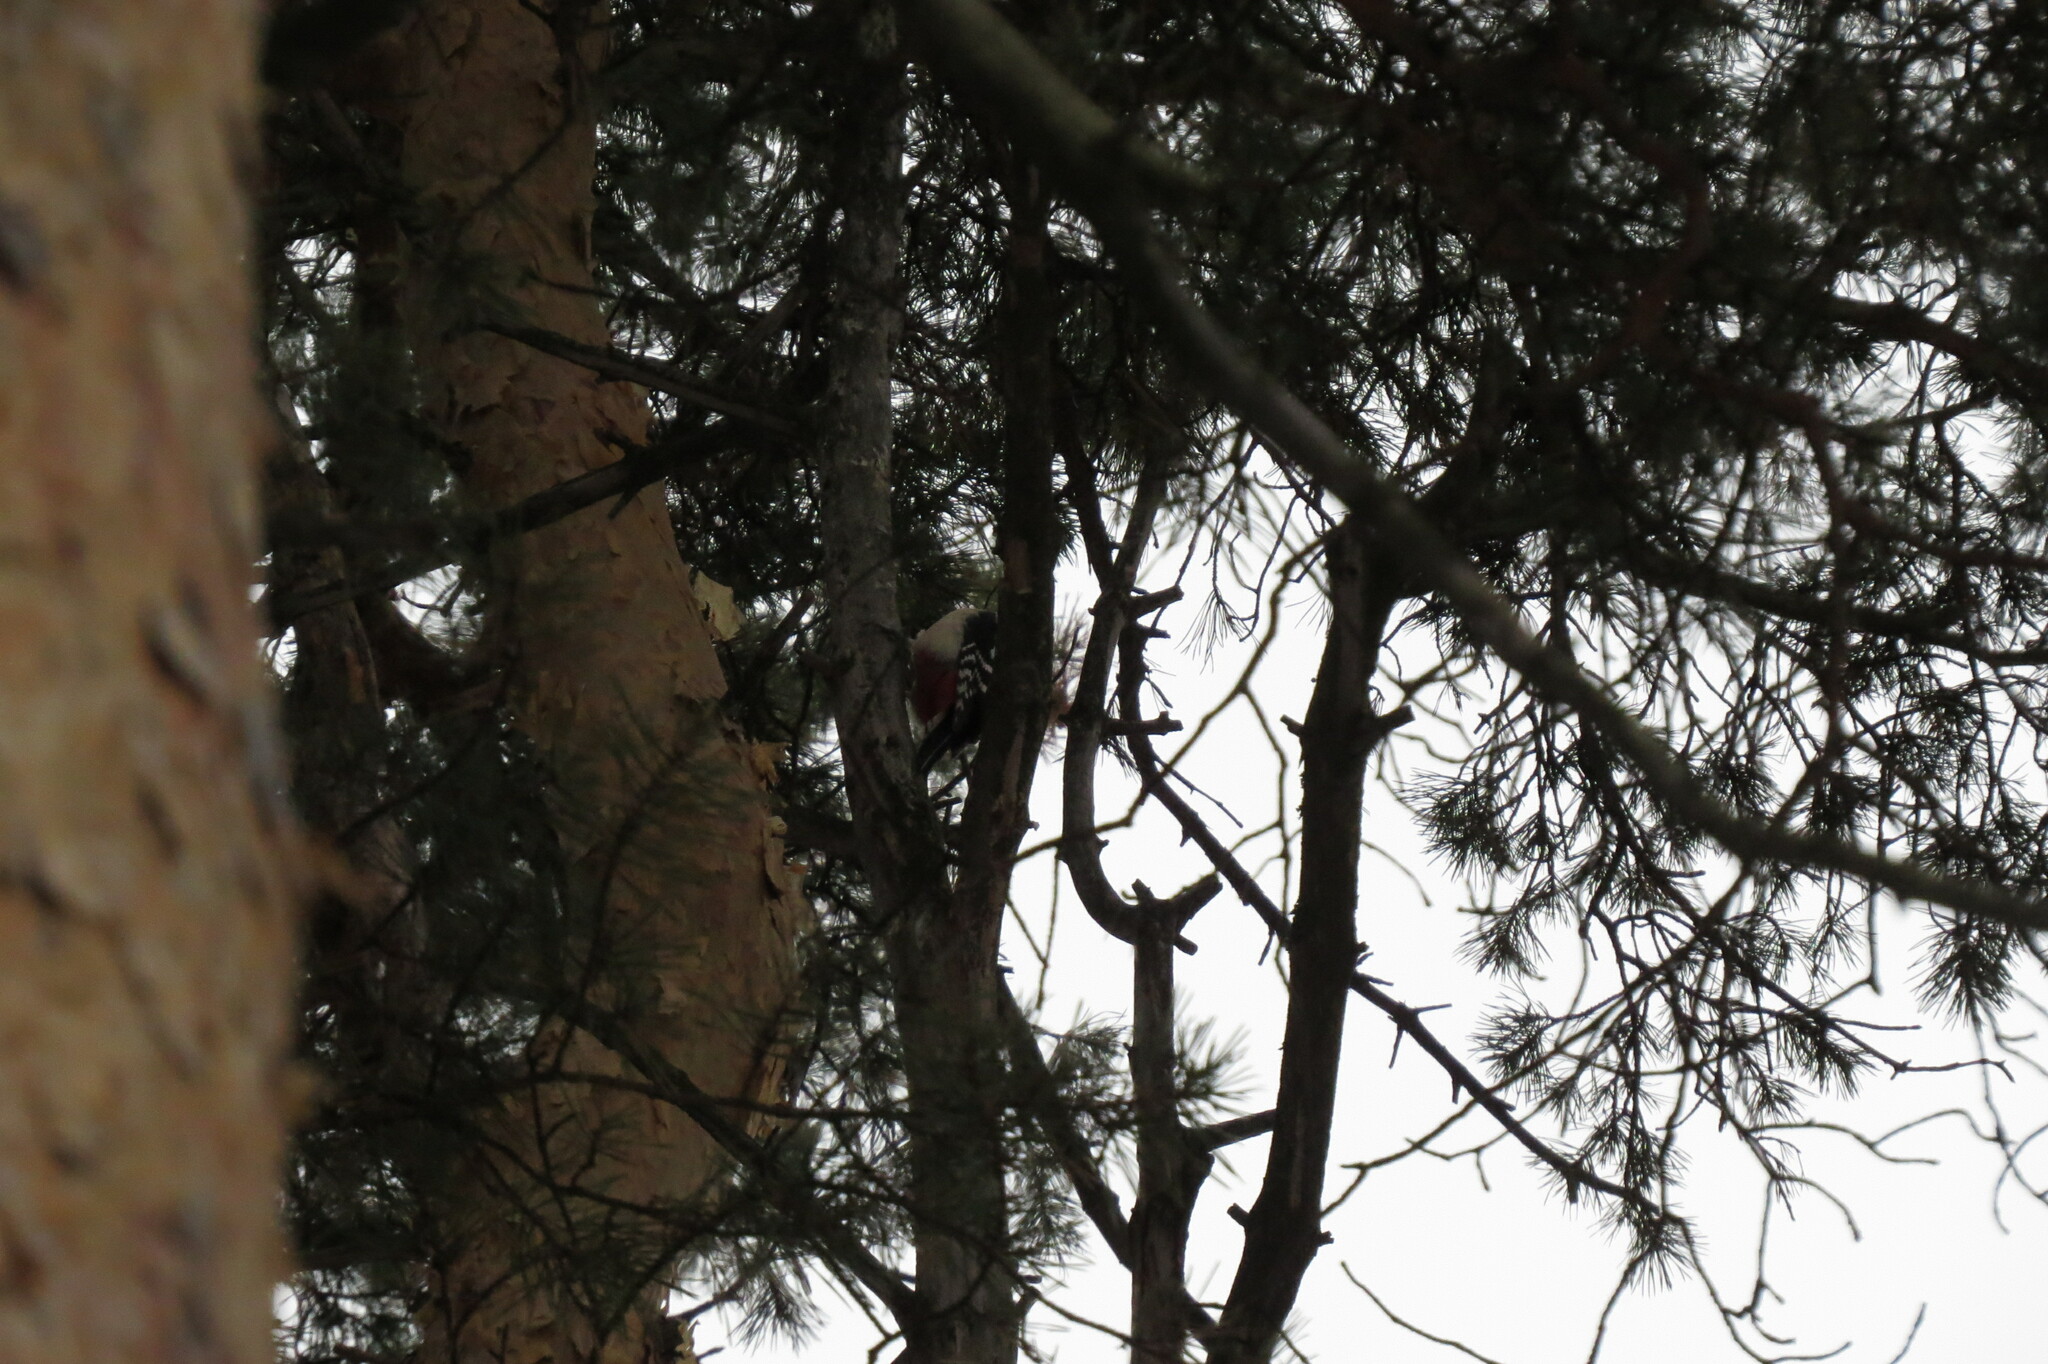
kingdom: Animalia
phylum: Chordata
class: Aves
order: Piciformes
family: Picidae
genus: Dendrocopos
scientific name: Dendrocopos major
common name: Great spotted woodpecker
